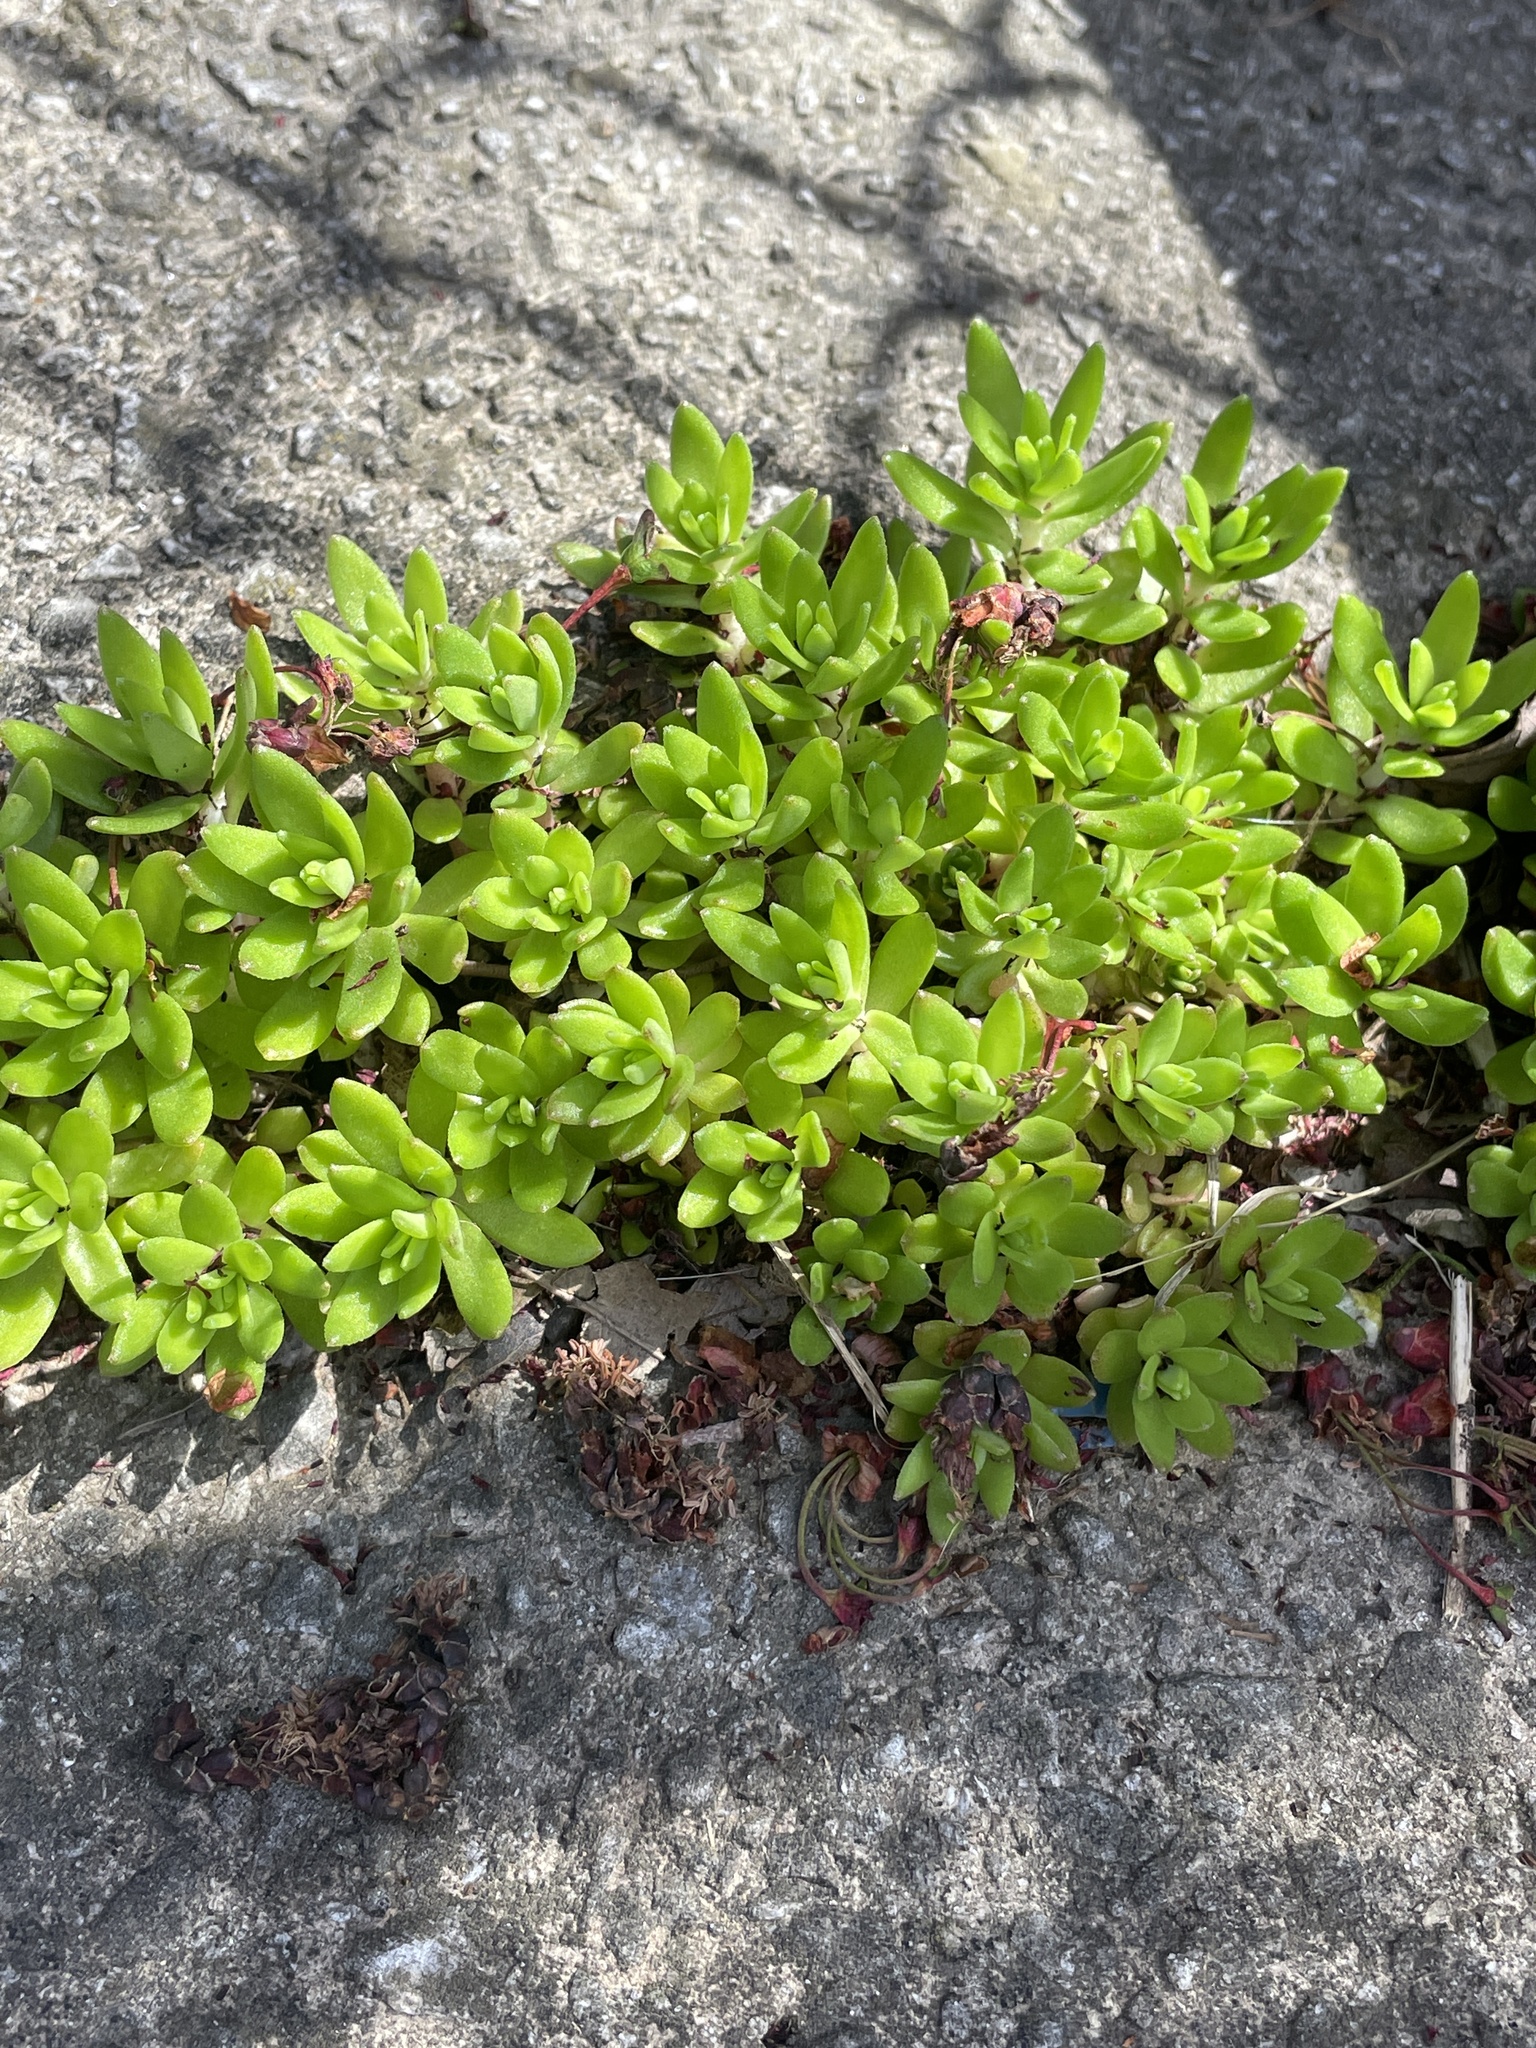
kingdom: Plantae
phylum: Tracheophyta
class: Magnoliopsida
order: Saxifragales
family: Crassulaceae
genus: Sedum
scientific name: Sedum sarmentosum
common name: Stringy stonecrop
